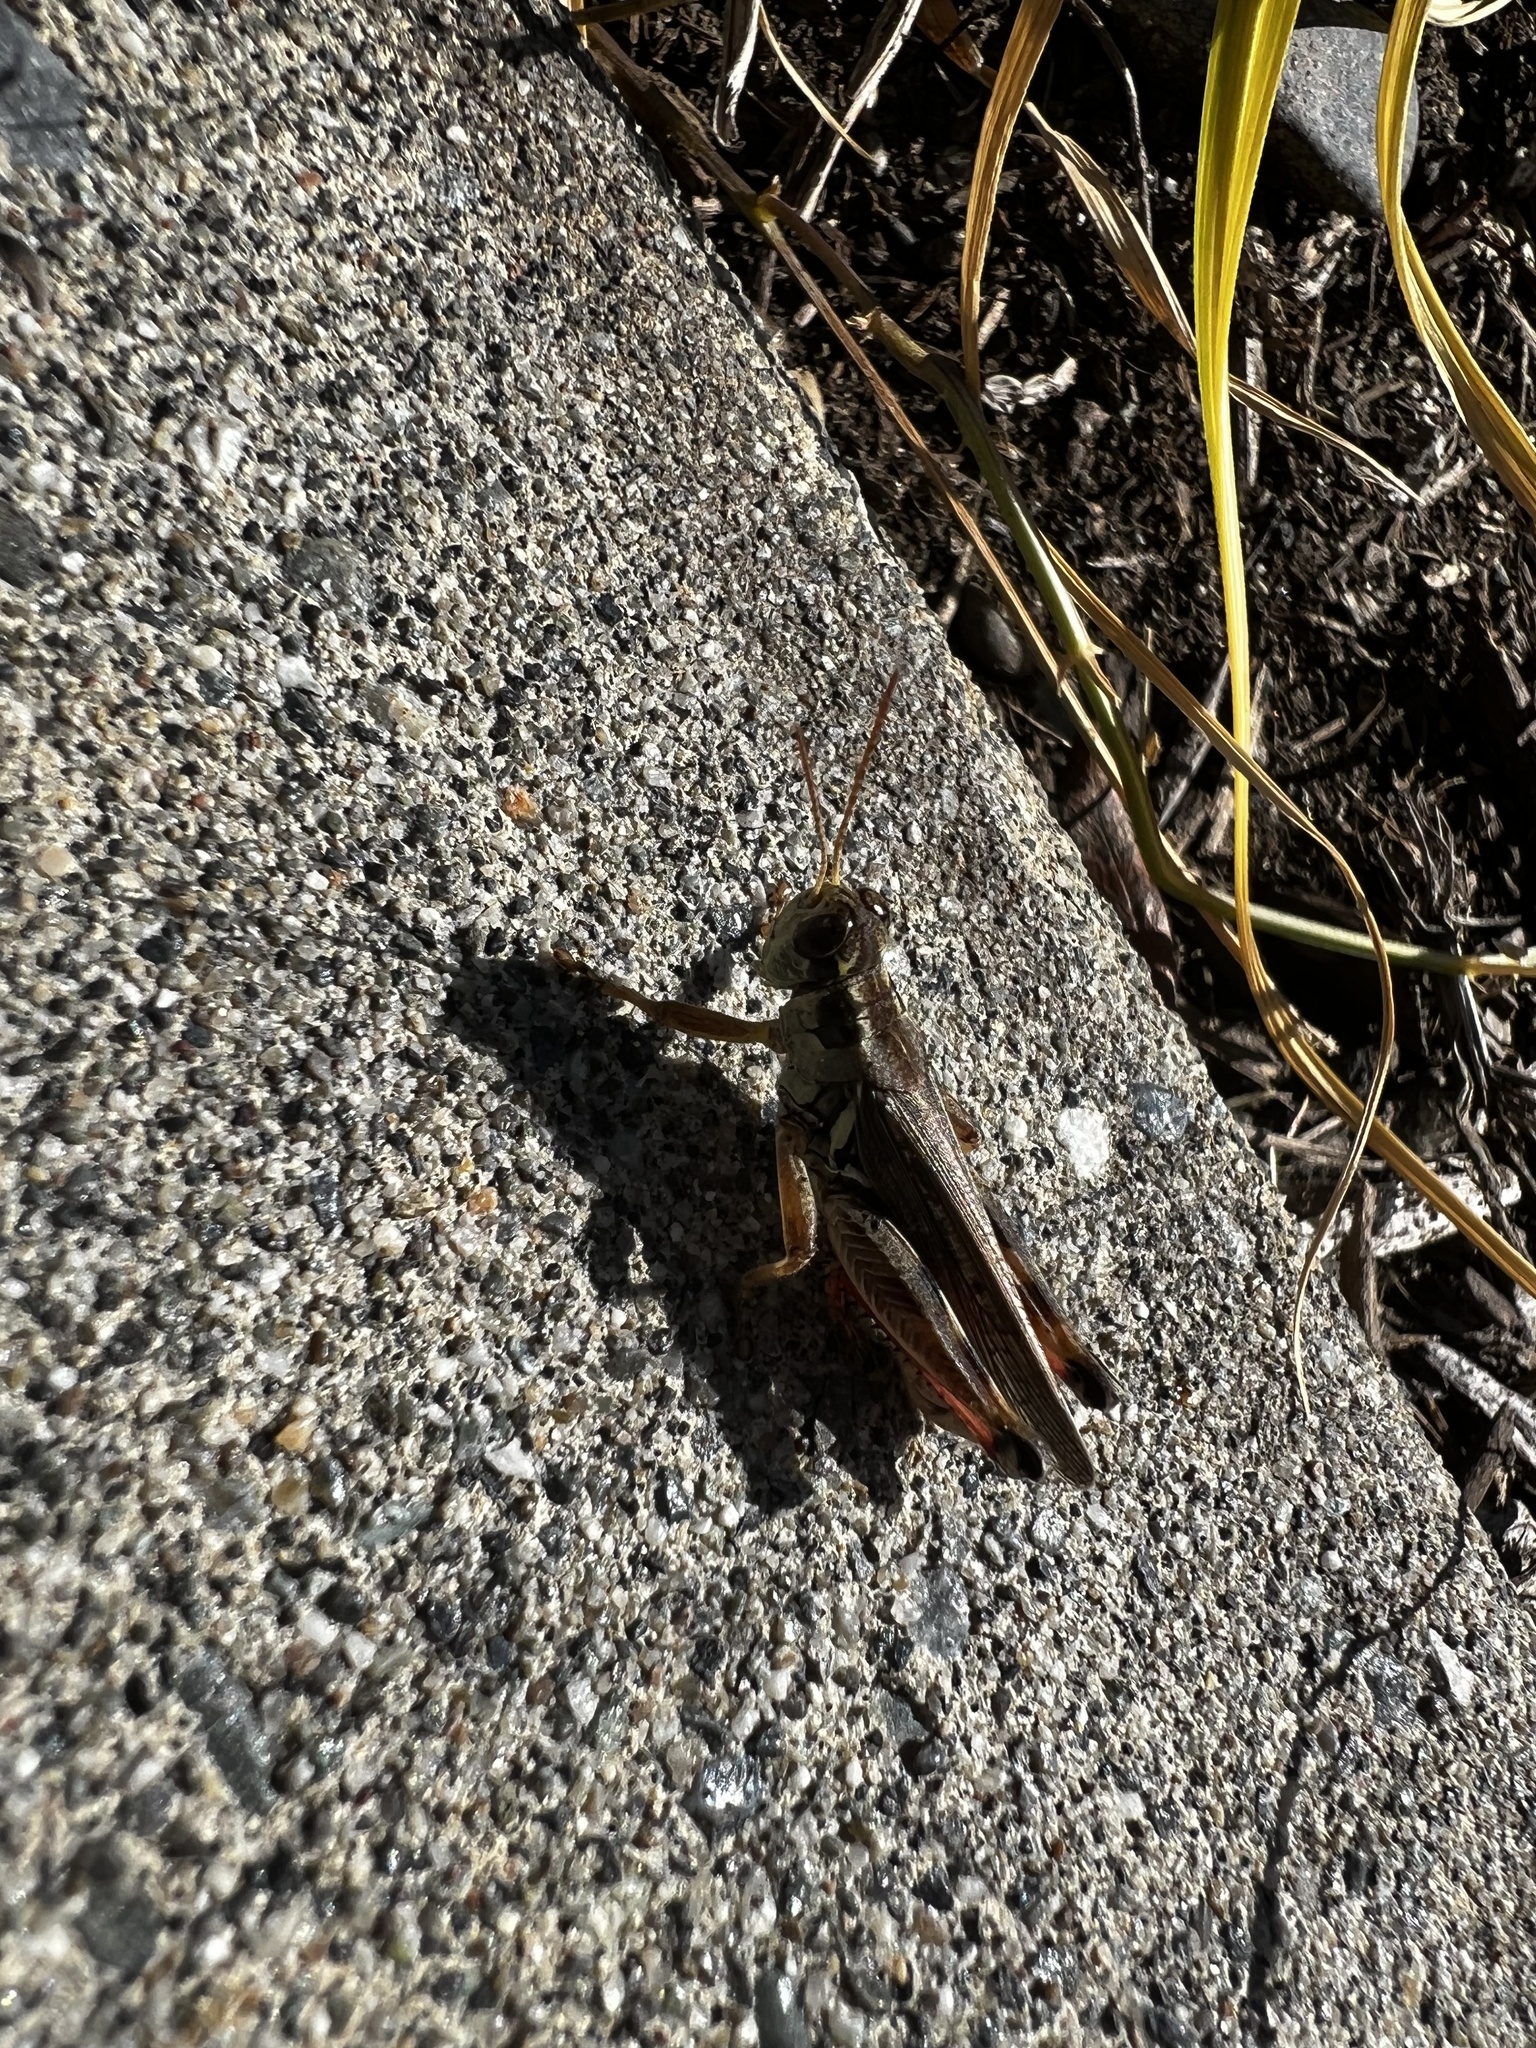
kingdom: Animalia
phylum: Arthropoda
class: Insecta
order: Orthoptera
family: Acrididae
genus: Melanoplus
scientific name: Melanoplus sanguinipes
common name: Migratory grasshopper
